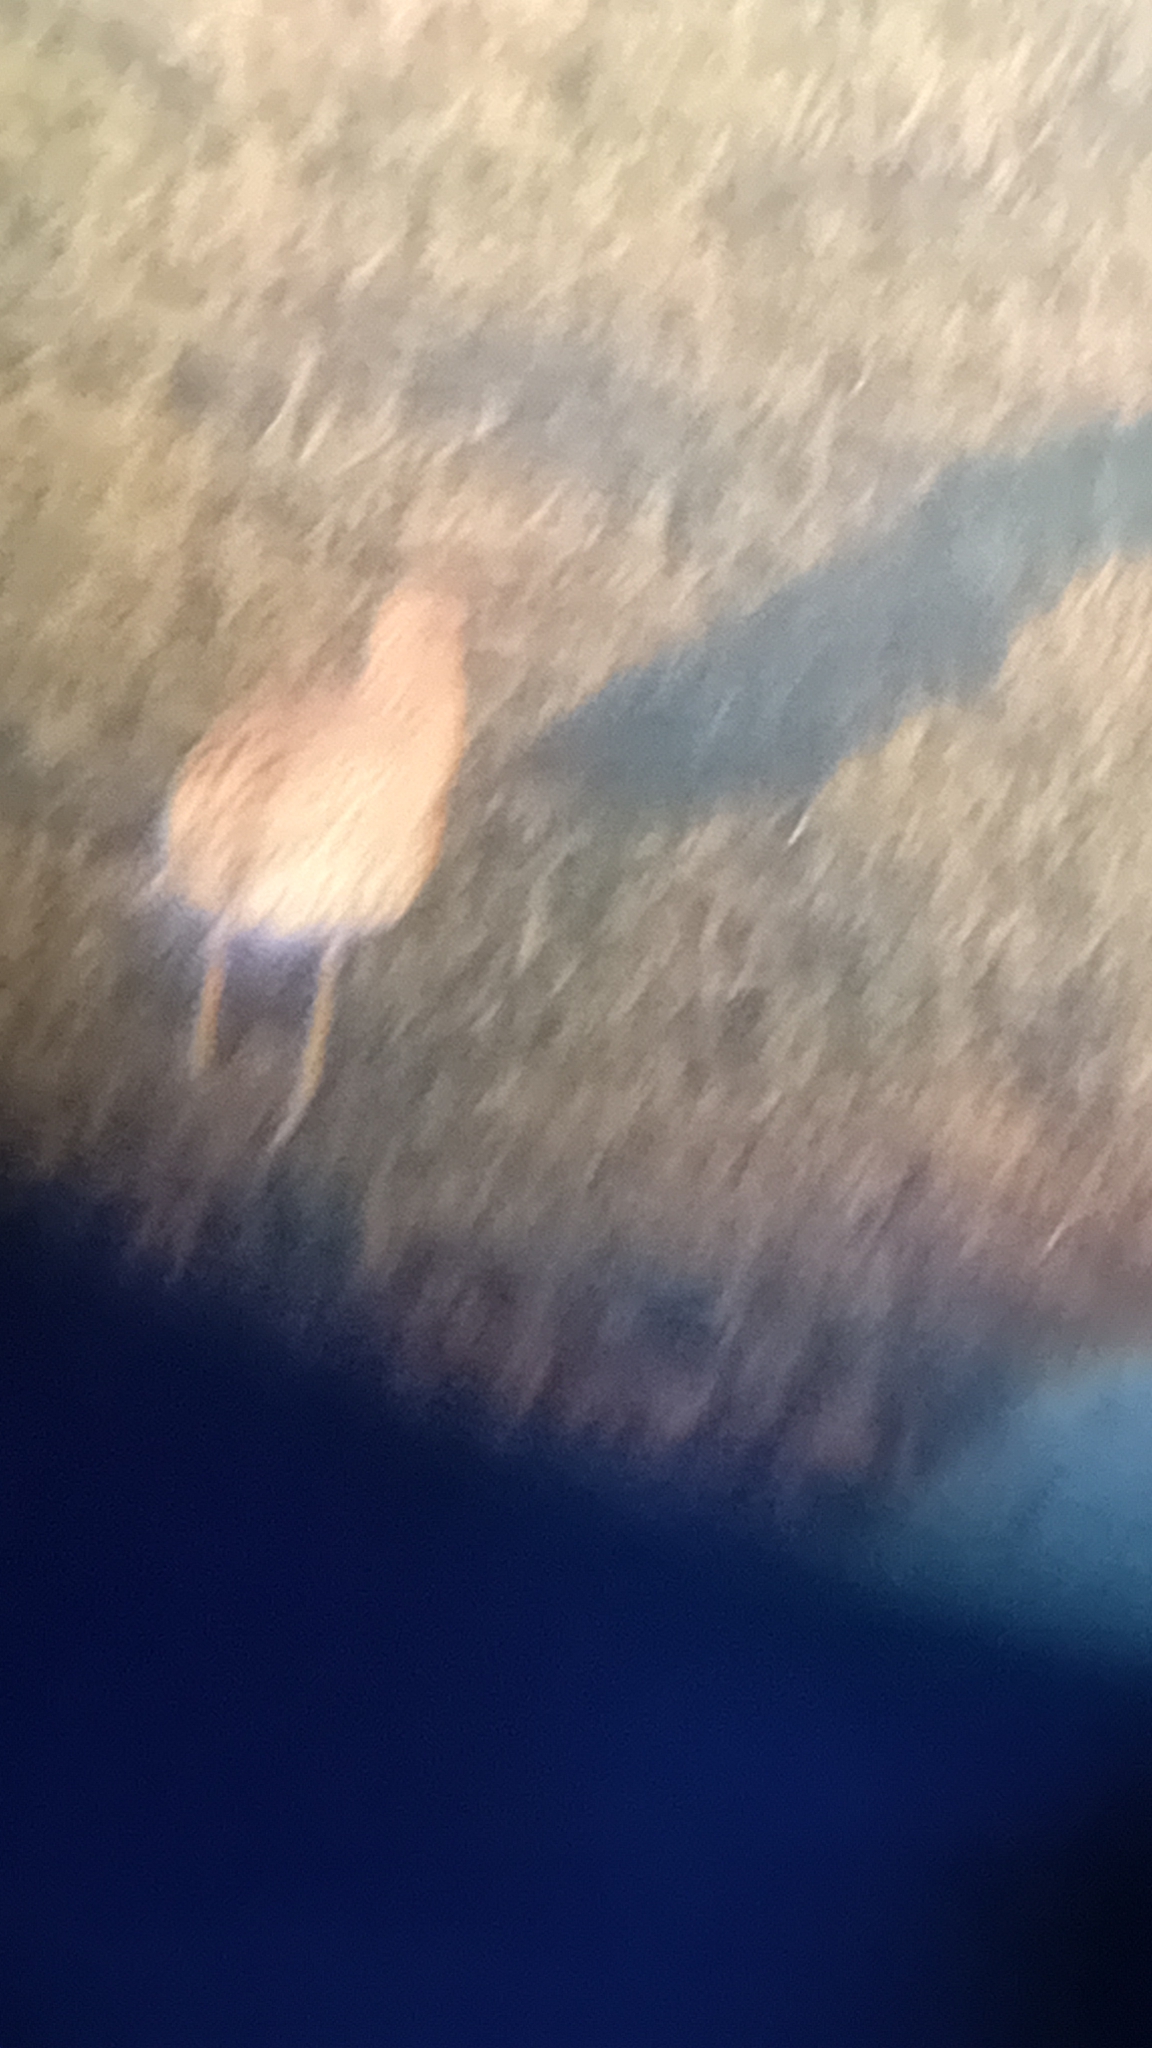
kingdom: Animalia
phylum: Chordata
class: Aves
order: Charadriiformes
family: Scolopacidae
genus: Numenius
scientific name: Numenius arquata
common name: Eurasian curlew
